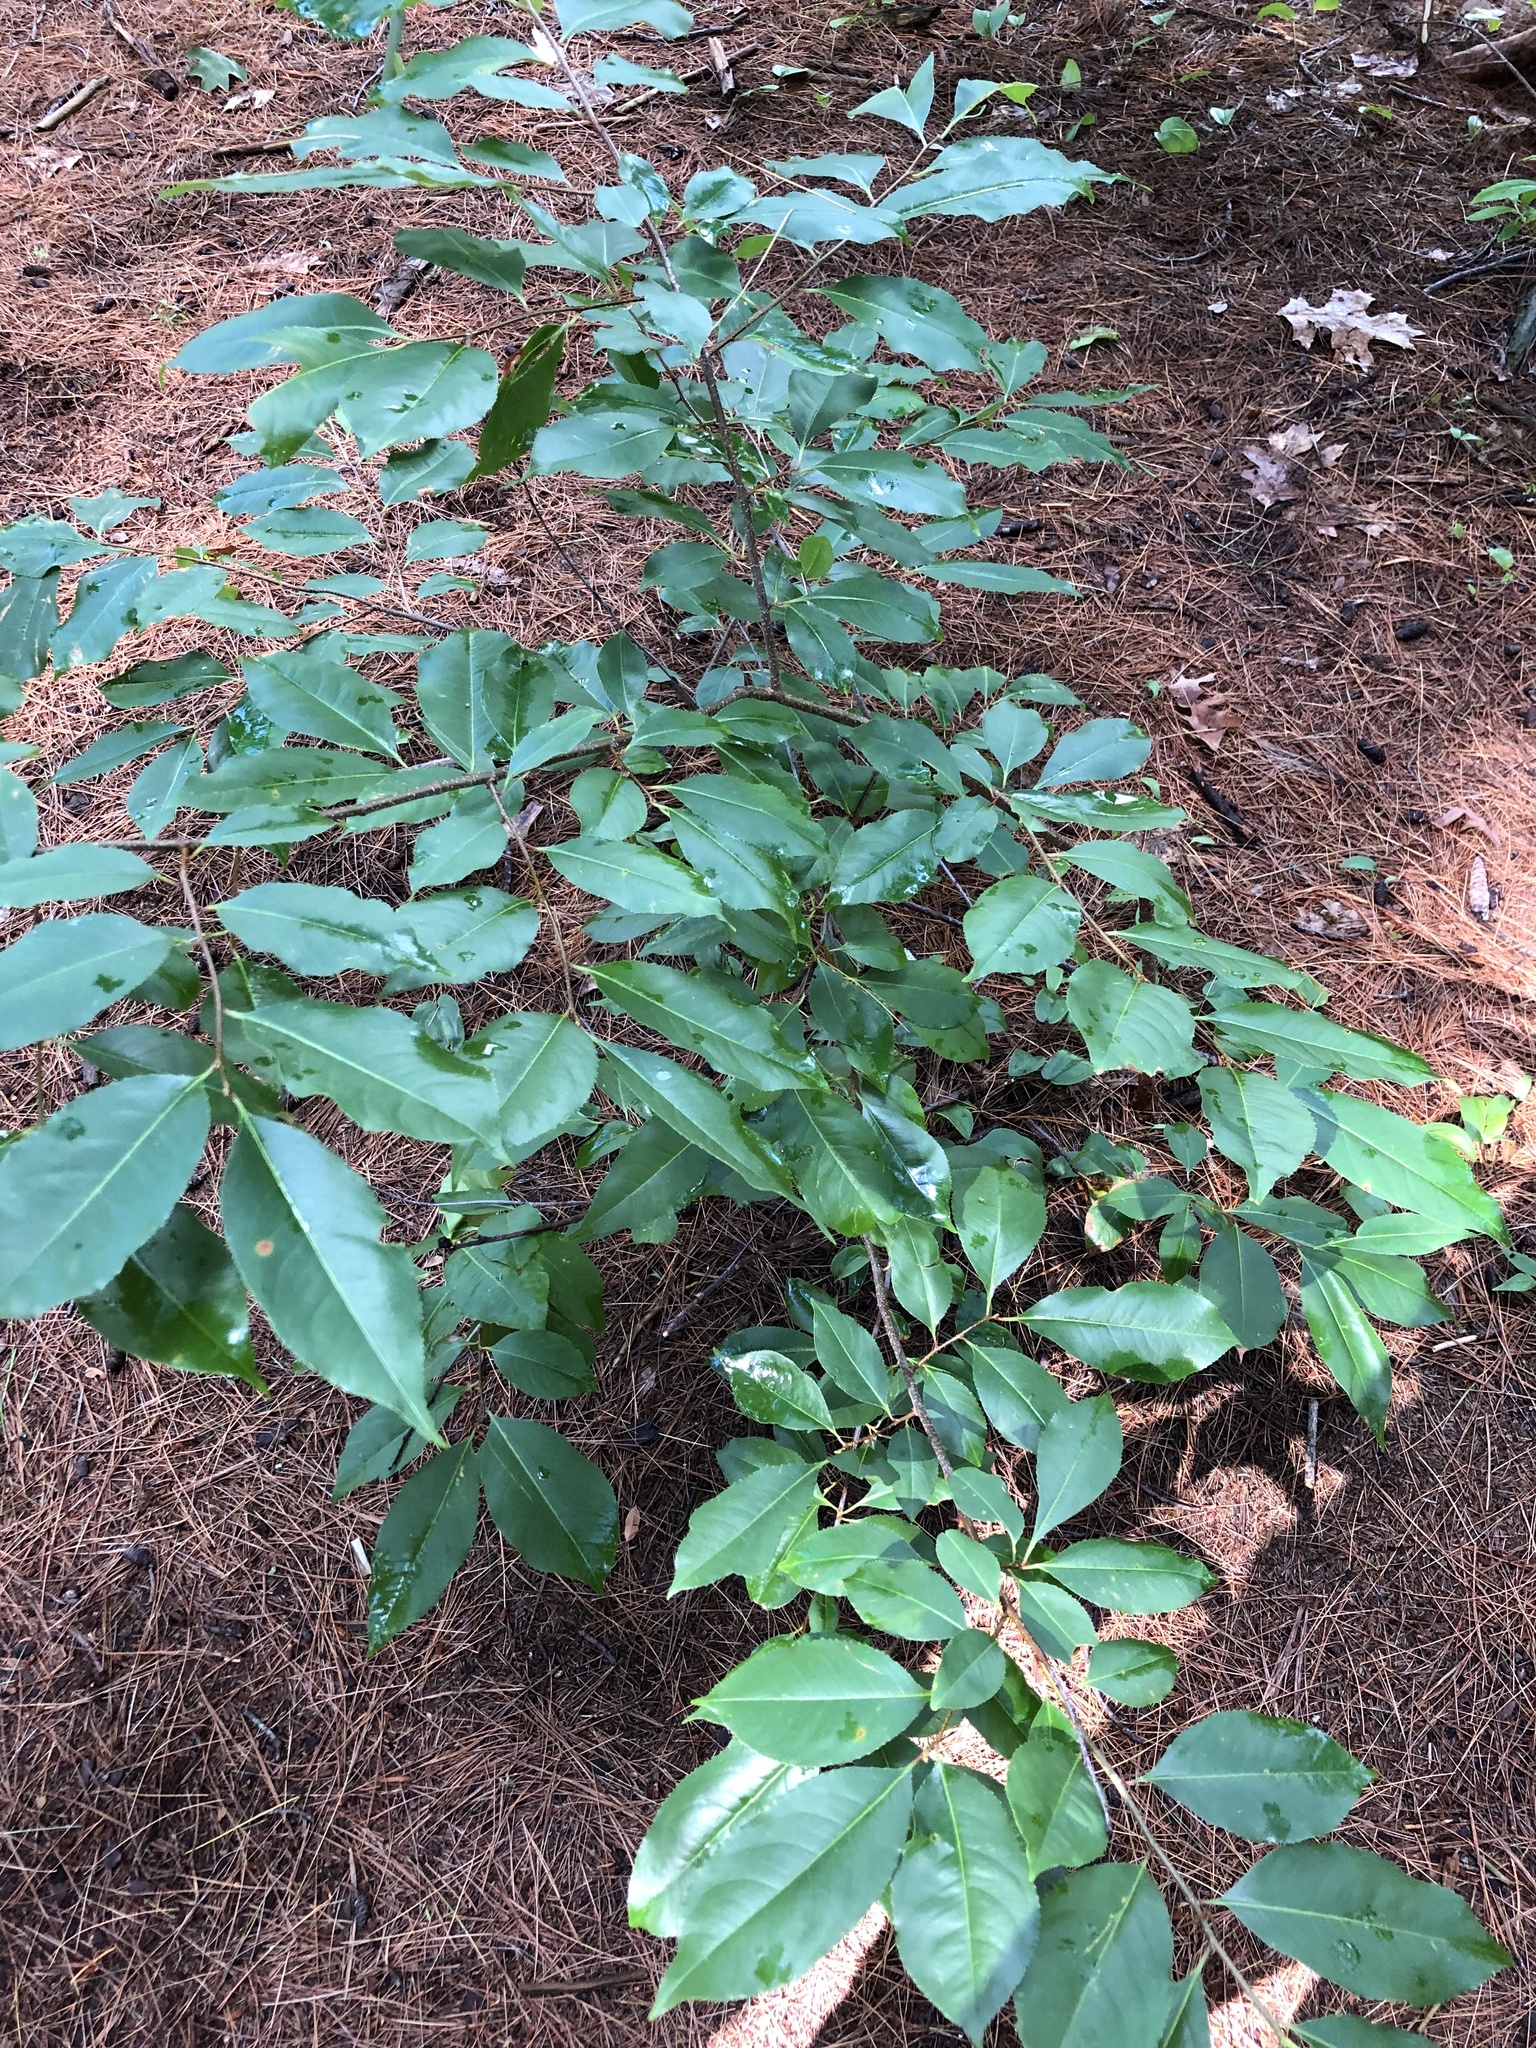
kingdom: Plantae
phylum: Tracheophyta
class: Magnoliopsida
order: Rosales
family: Rosaceae
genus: Prunus
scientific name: Prunus serotina
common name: Black cherry
